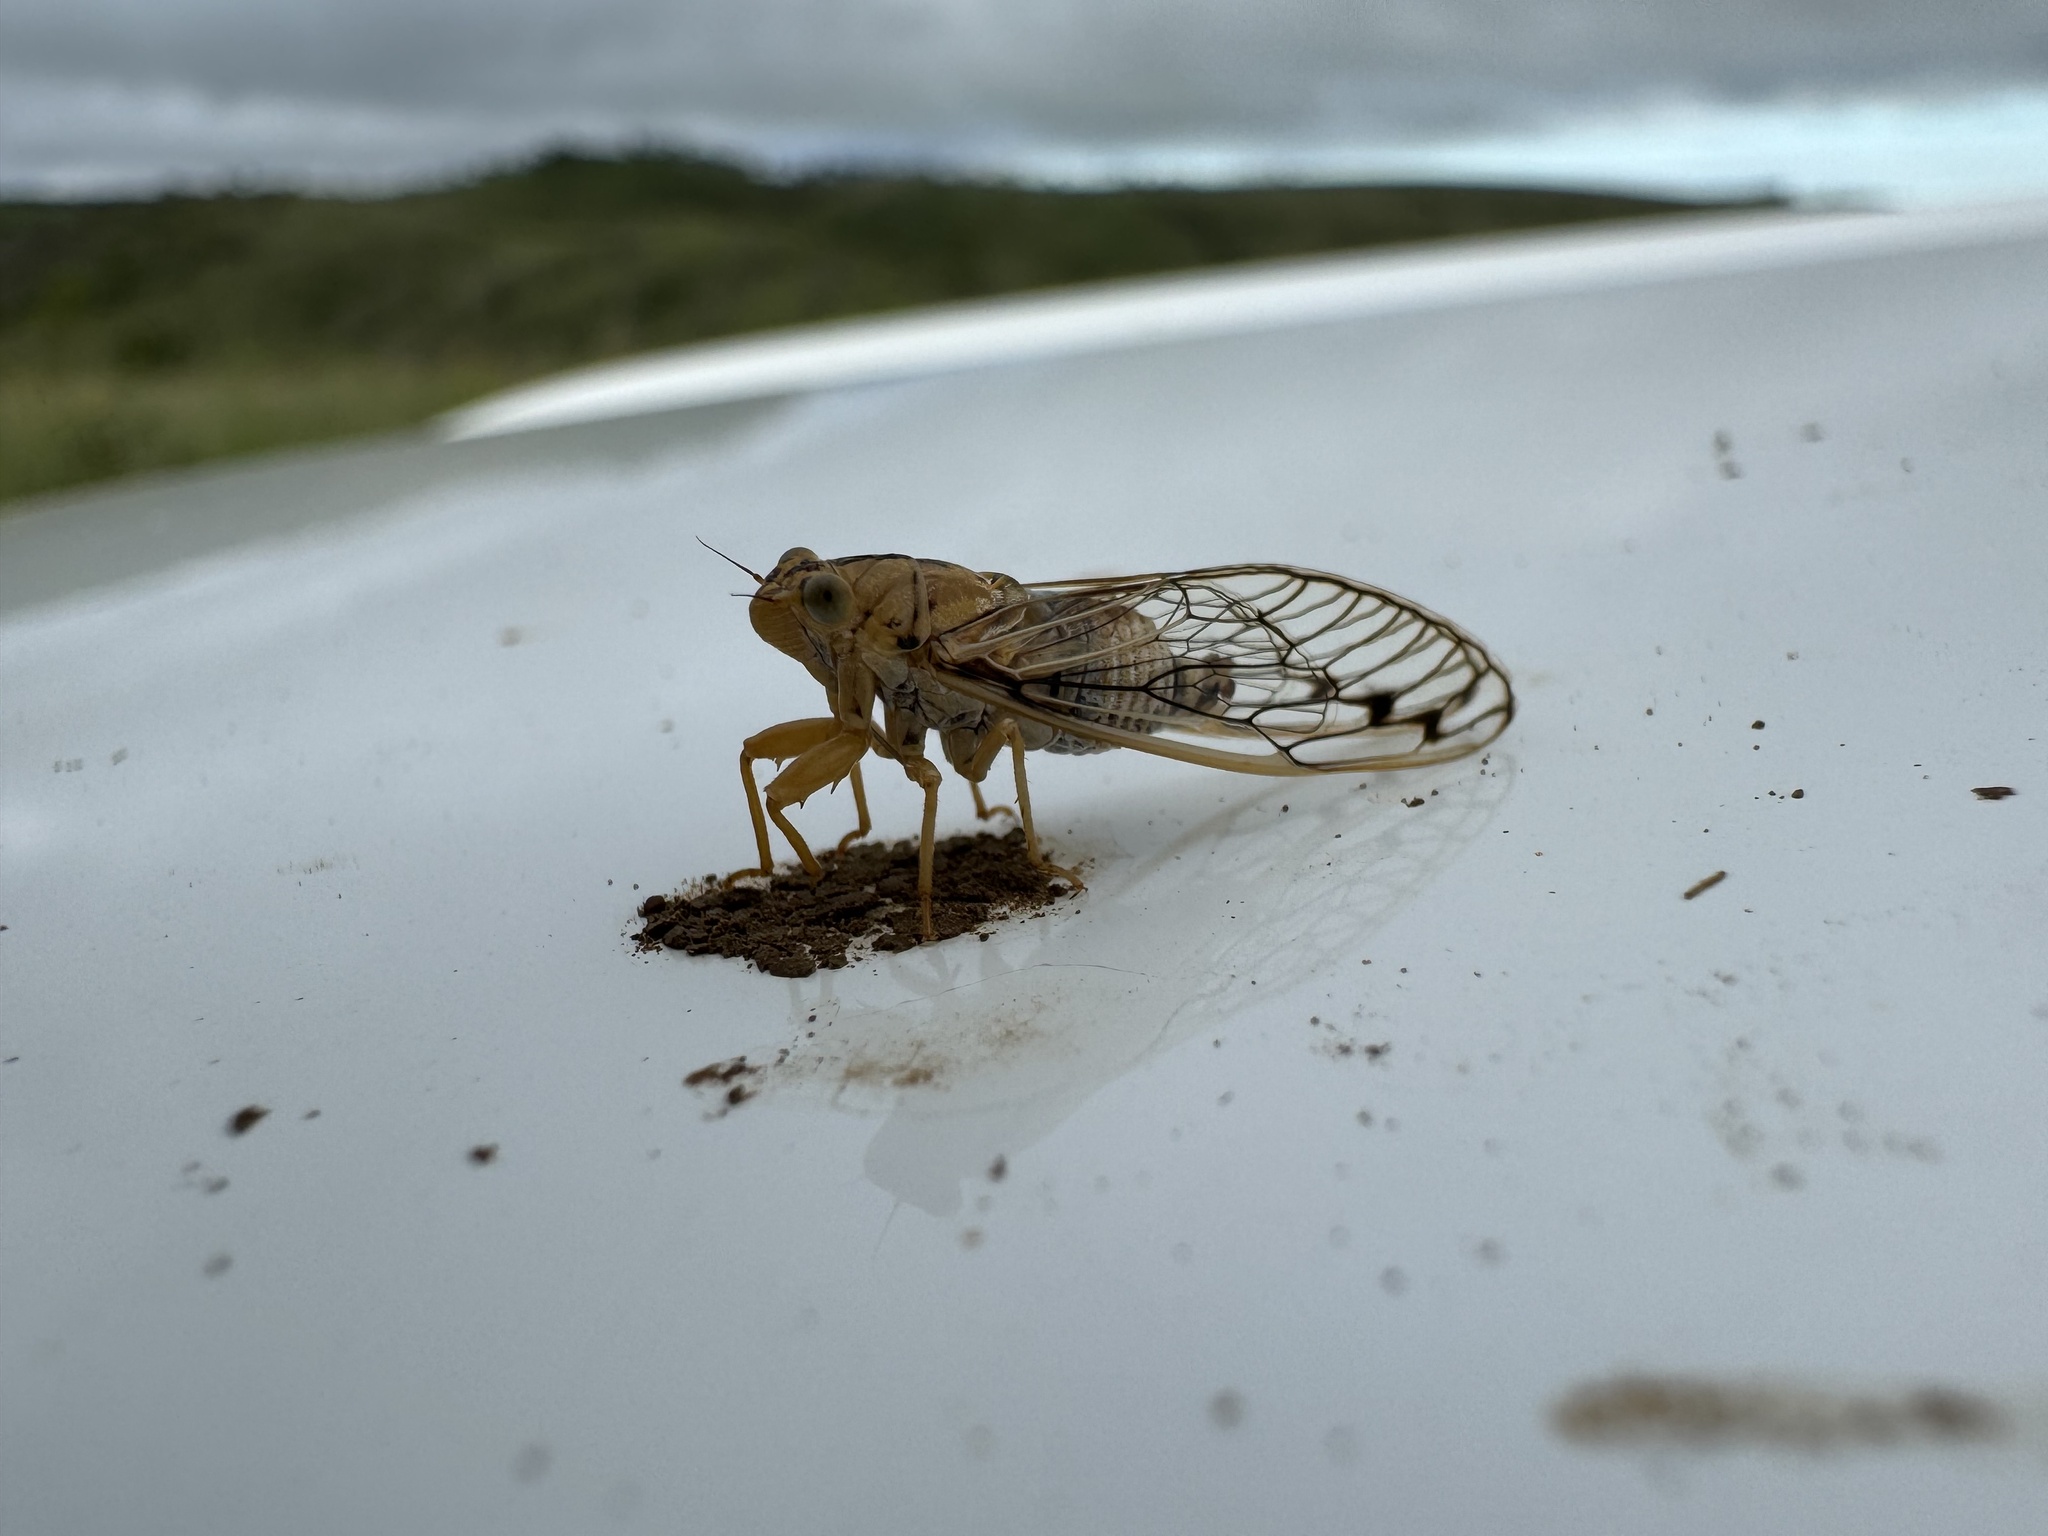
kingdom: Animalia
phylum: Arthropoda
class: Insecta
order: Hemiptera
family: Cicadidae
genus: Parnkalla
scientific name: Parnkalla muelleri
